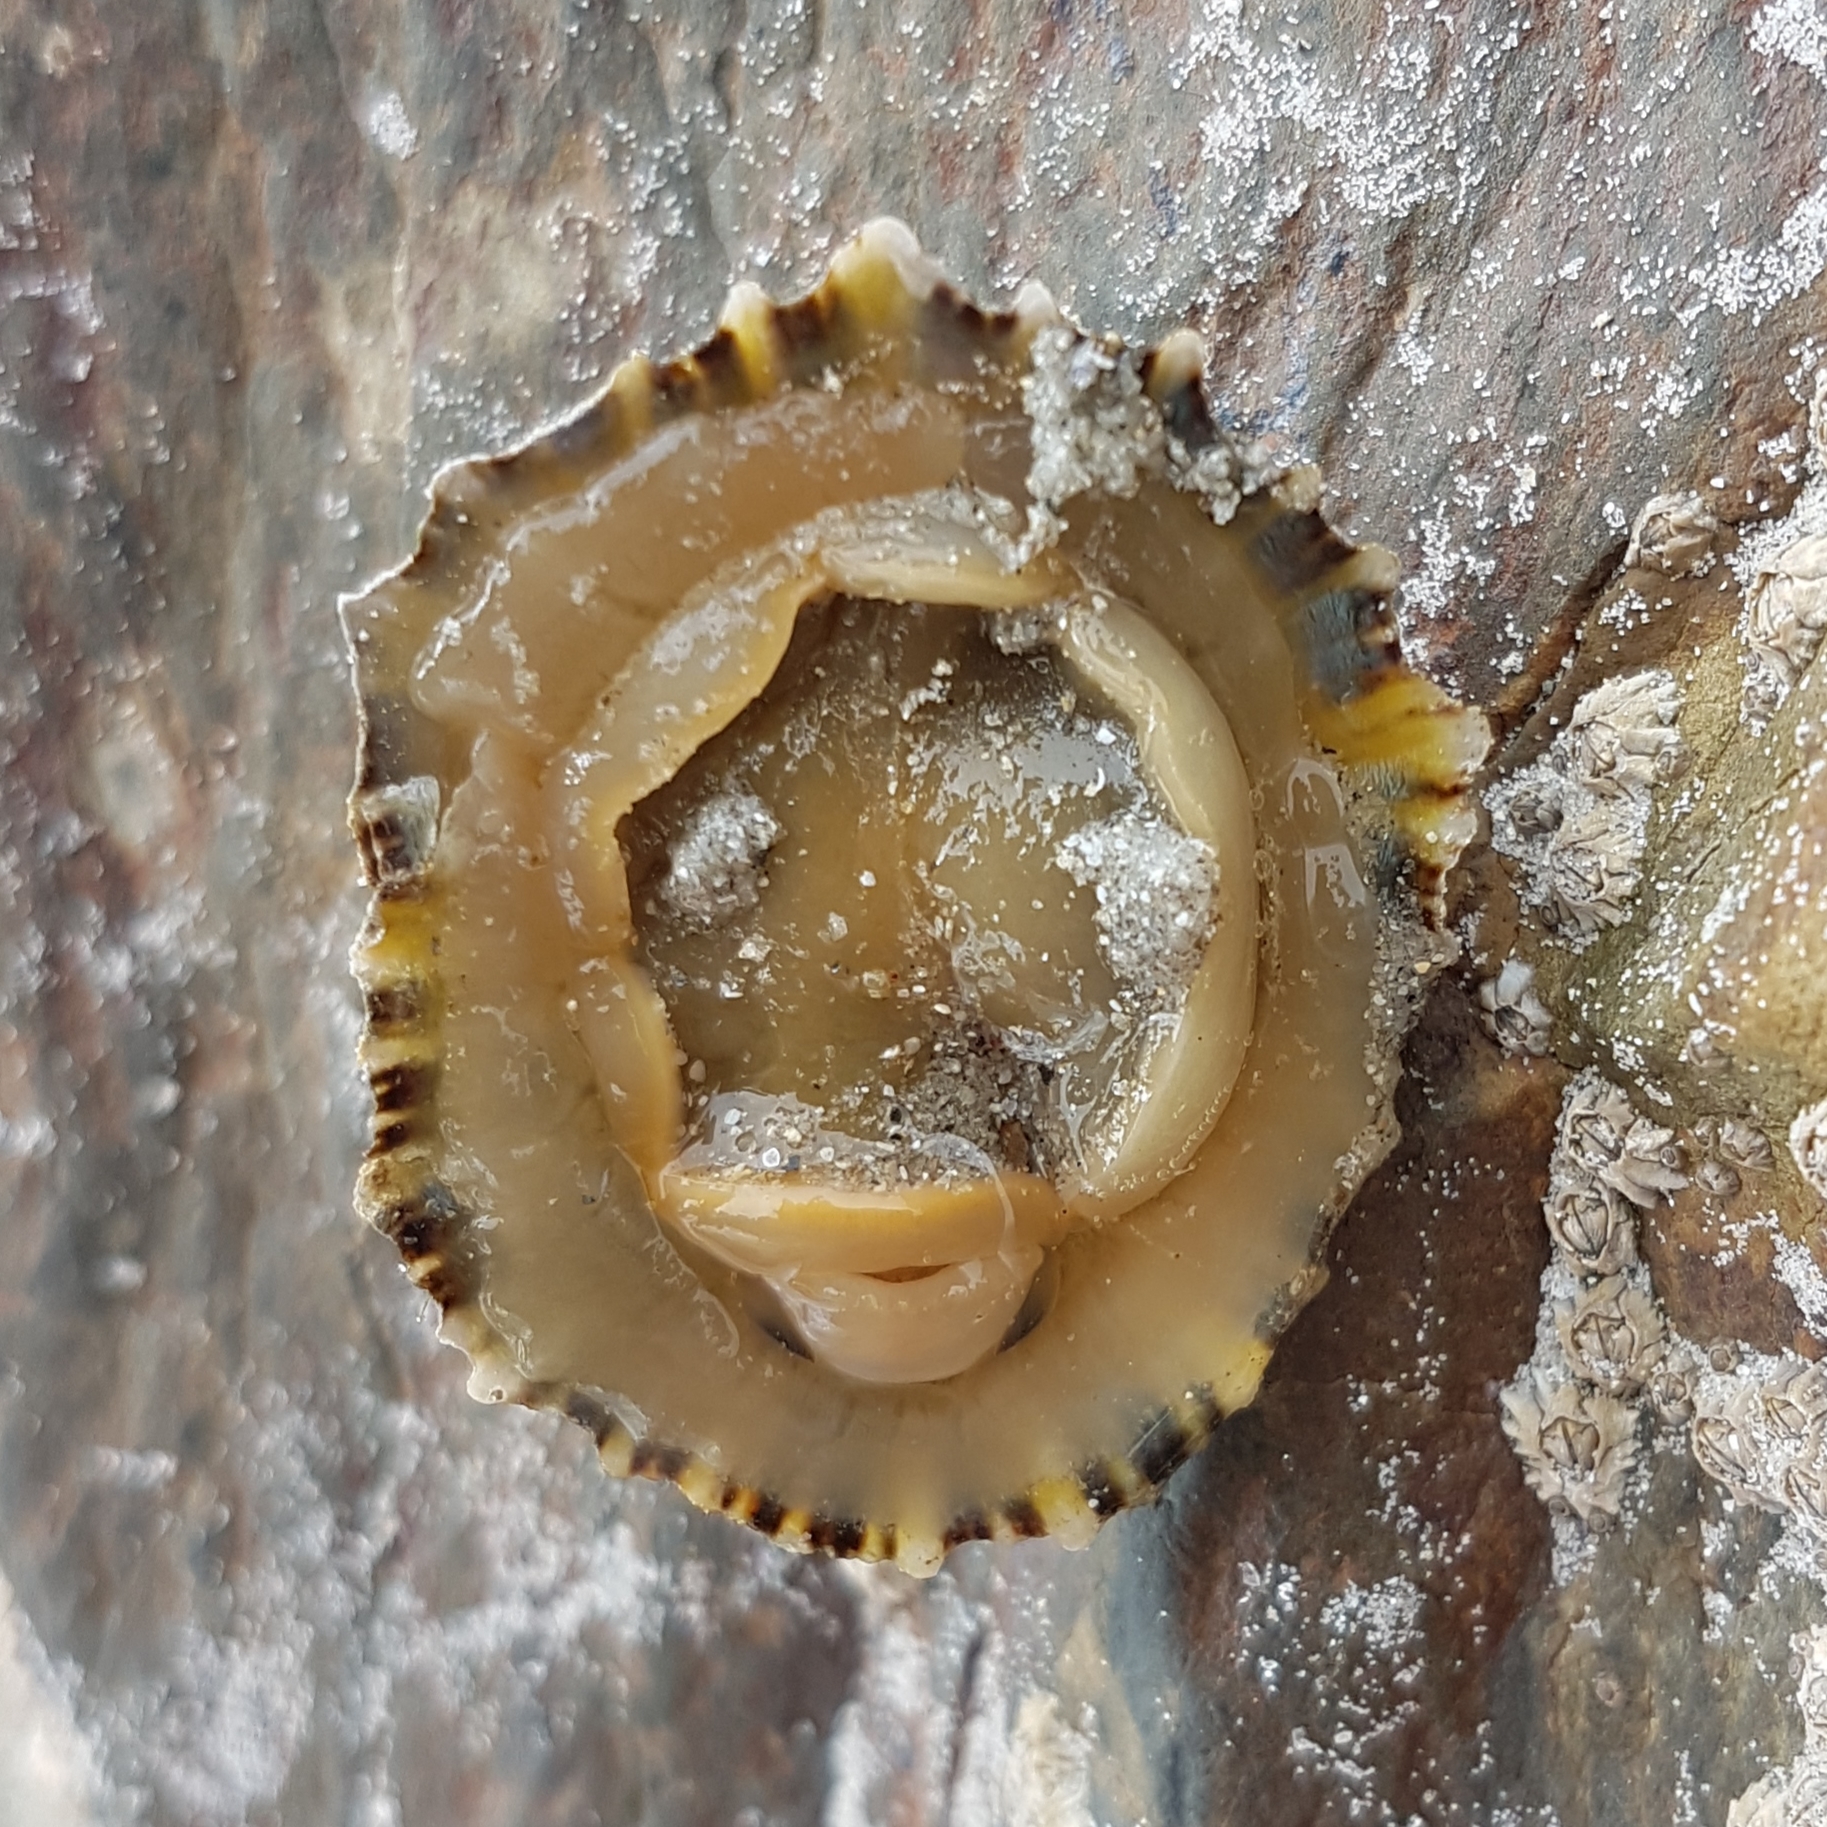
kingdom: Animalia
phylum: Mollusca
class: Gastropoda
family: Patellidae
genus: Patella
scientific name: Patella vulgata
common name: Common limpet
